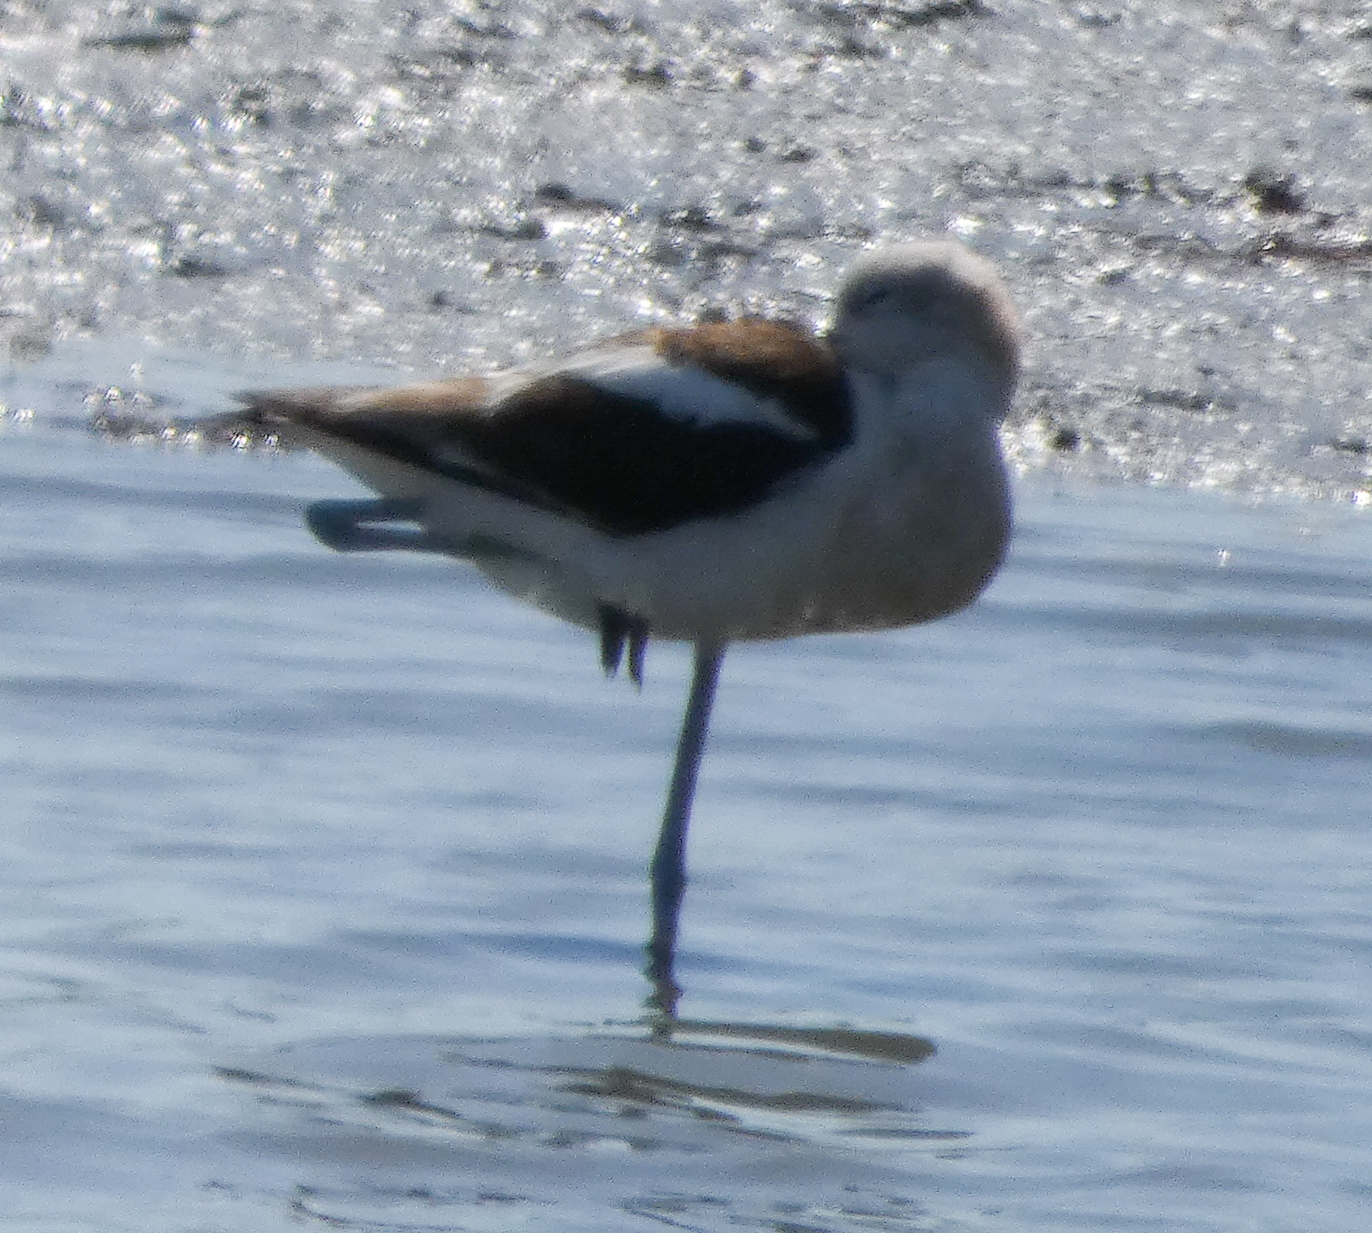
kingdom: Animalia
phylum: Chordata
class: Aves
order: Charadriiformes
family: Recurvirostridae
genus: Recurvirostra
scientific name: Recurvirostra americana
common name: American avocet
